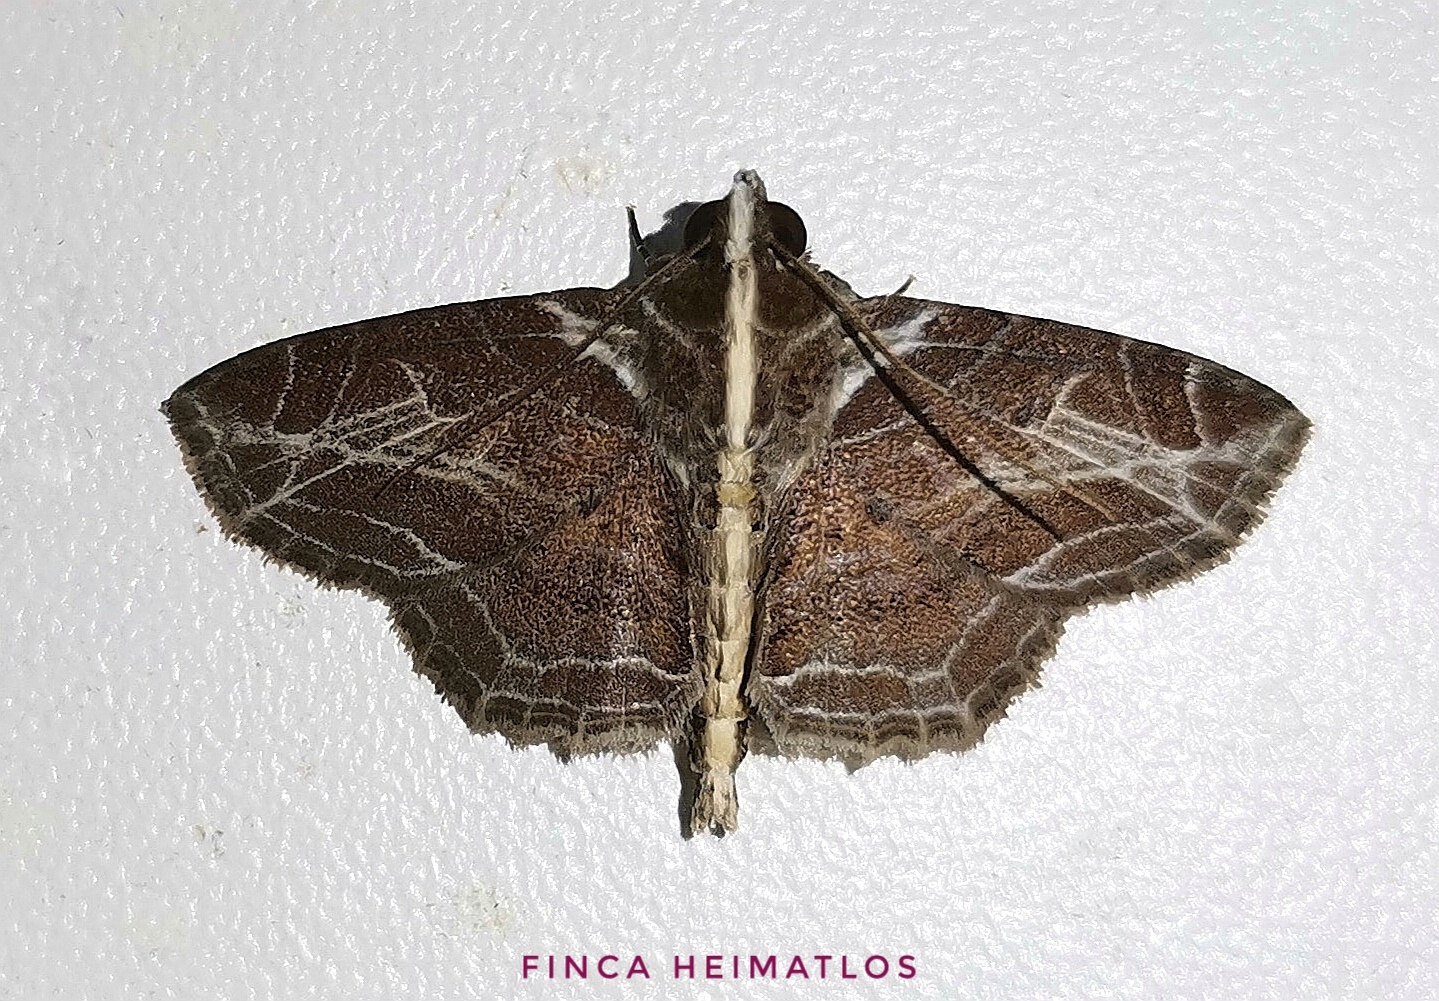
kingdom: Animalia
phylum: Arthropoda
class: Insecta
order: Lepidoptera
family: Erebidae
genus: Dolichosomastis
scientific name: Dolichosomastis leucogrammica
